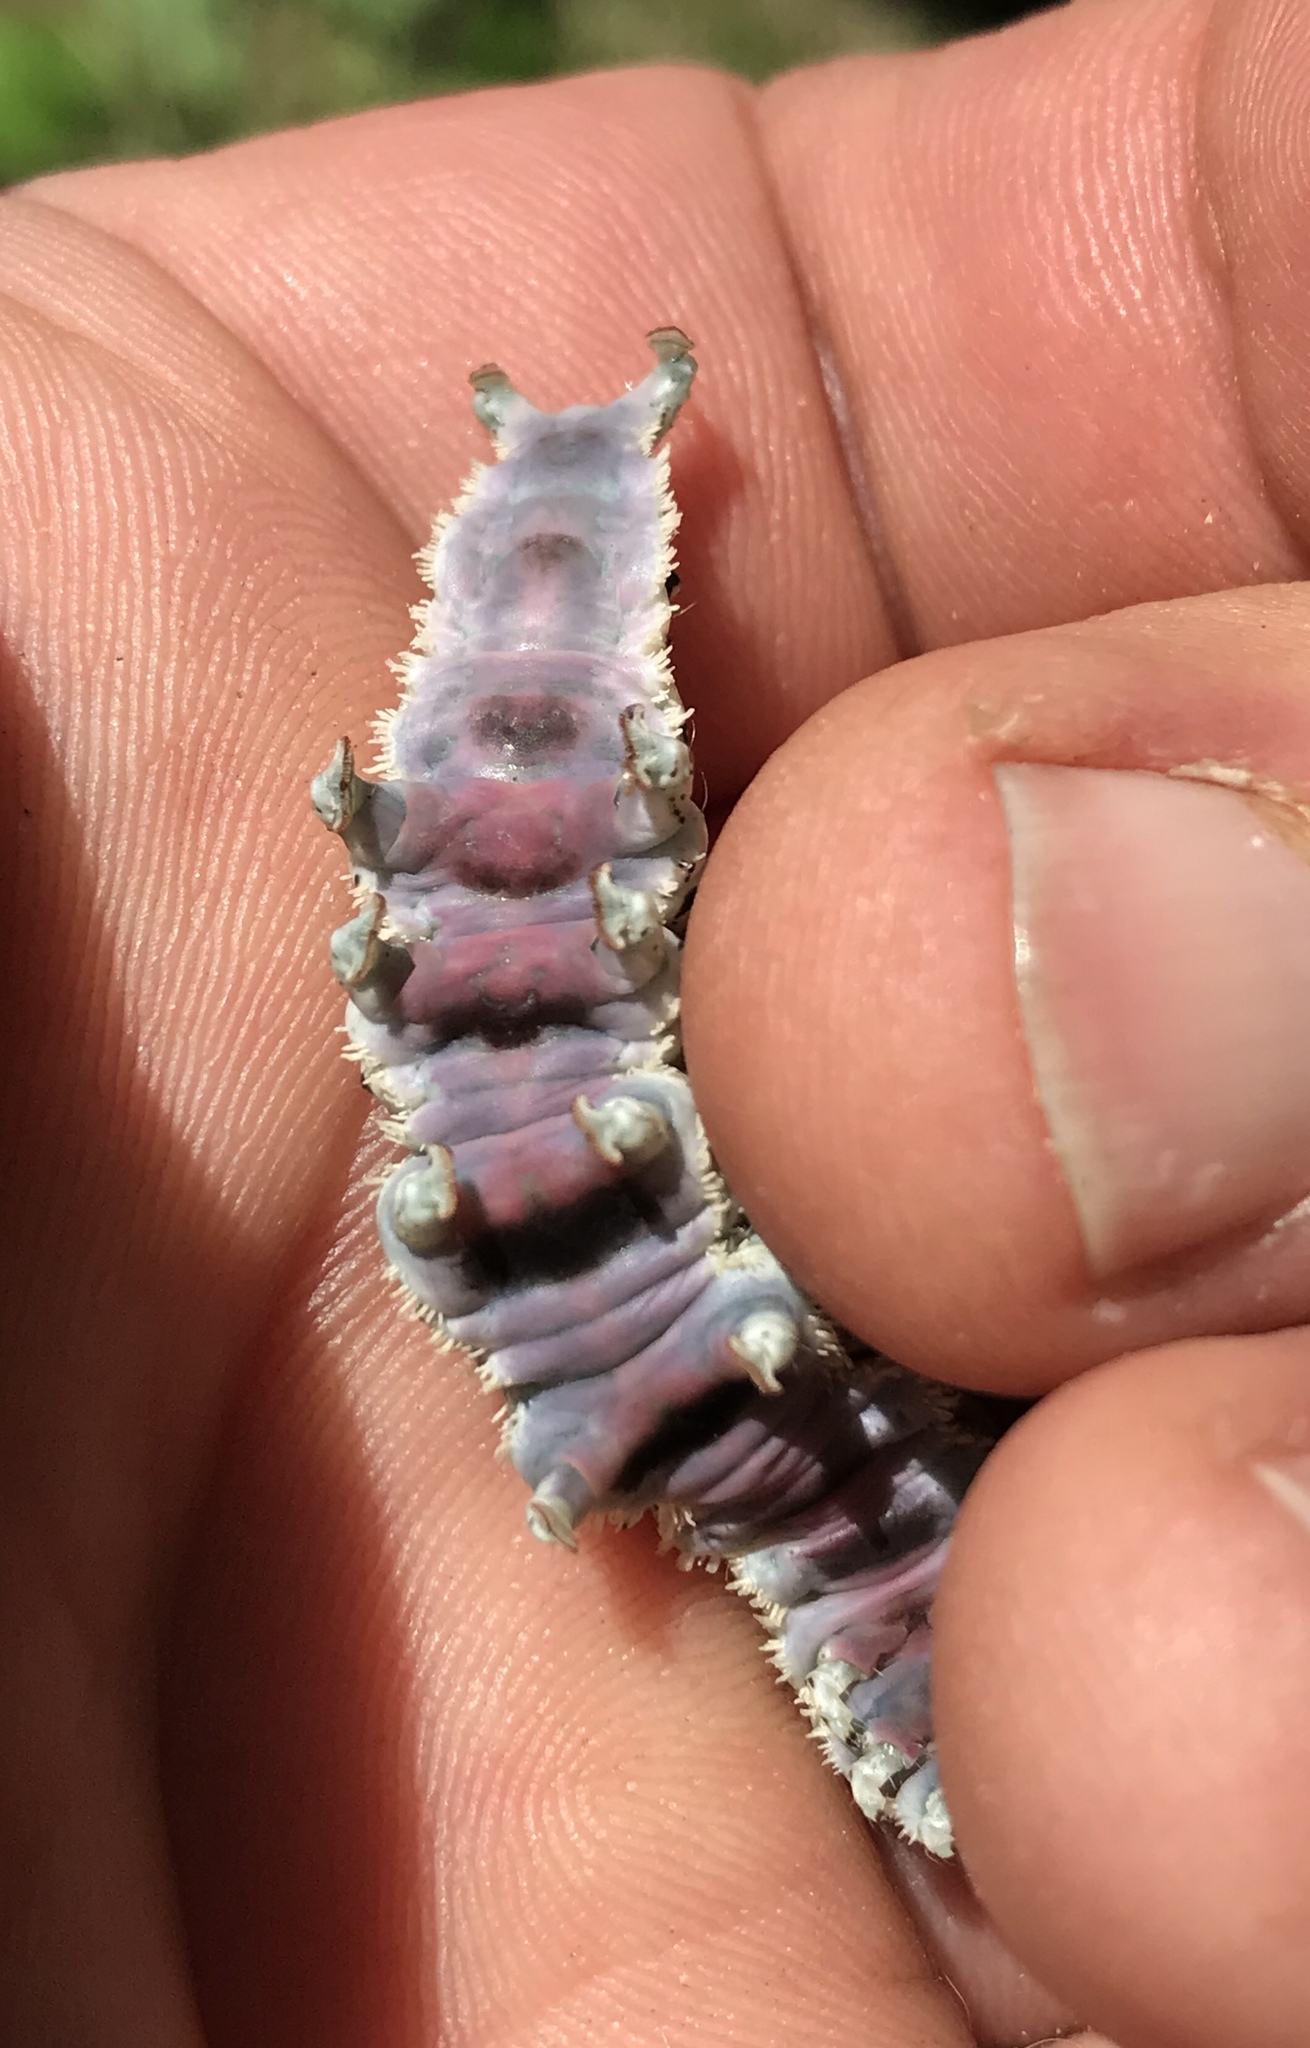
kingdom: Animalia
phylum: Arthropoda
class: Insecta
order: Lepidoptera
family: Erebidae
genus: Catocala
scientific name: Catocala ilia
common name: Ilia underwing
